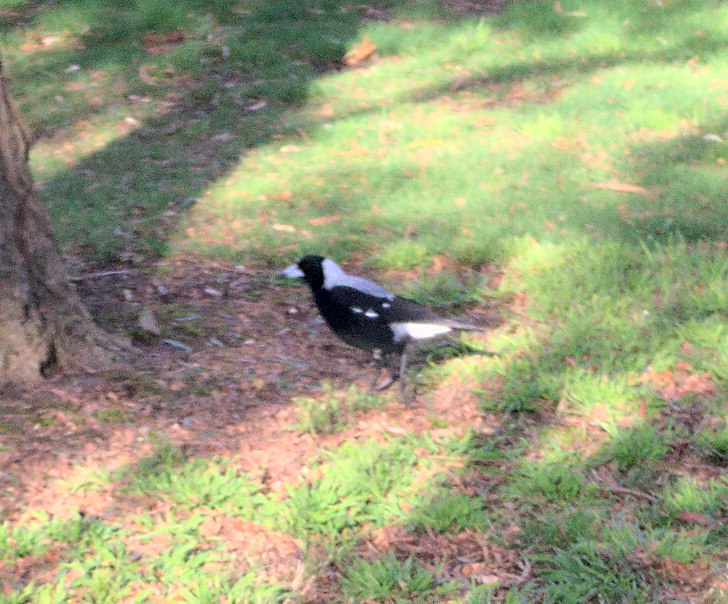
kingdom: Animalia
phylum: Chordata
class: Aves
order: Passeriformes
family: Cracticidae
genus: Gymnorhina
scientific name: Gymnorhina tibicen
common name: Australian magpie
